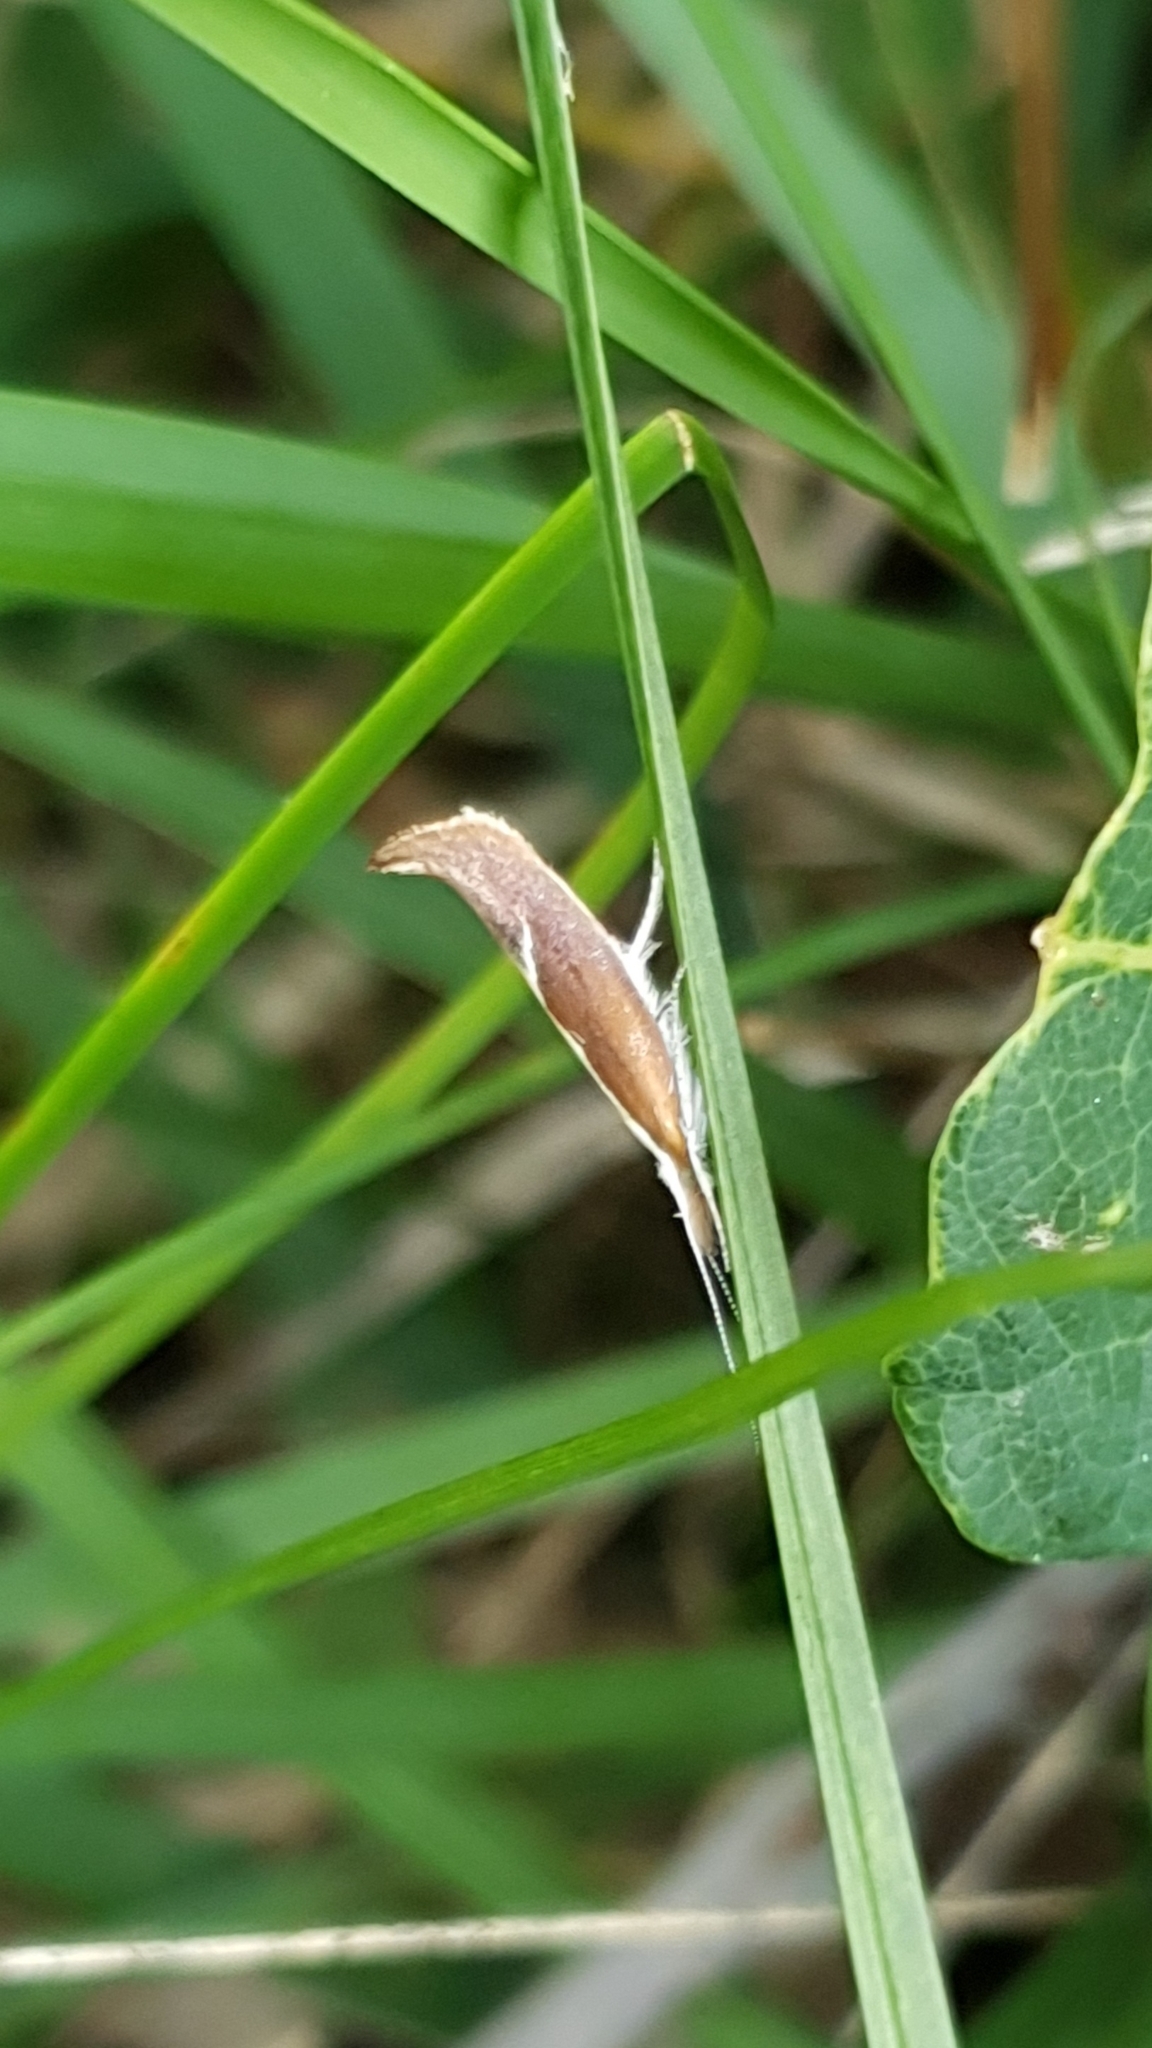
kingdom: Animalia
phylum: Arthropoda
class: Insecta
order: Lepidoptera
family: Ypsolophidae
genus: Ypsolopha
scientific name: Ypsolopha dentella
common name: Honeysuckle moth
